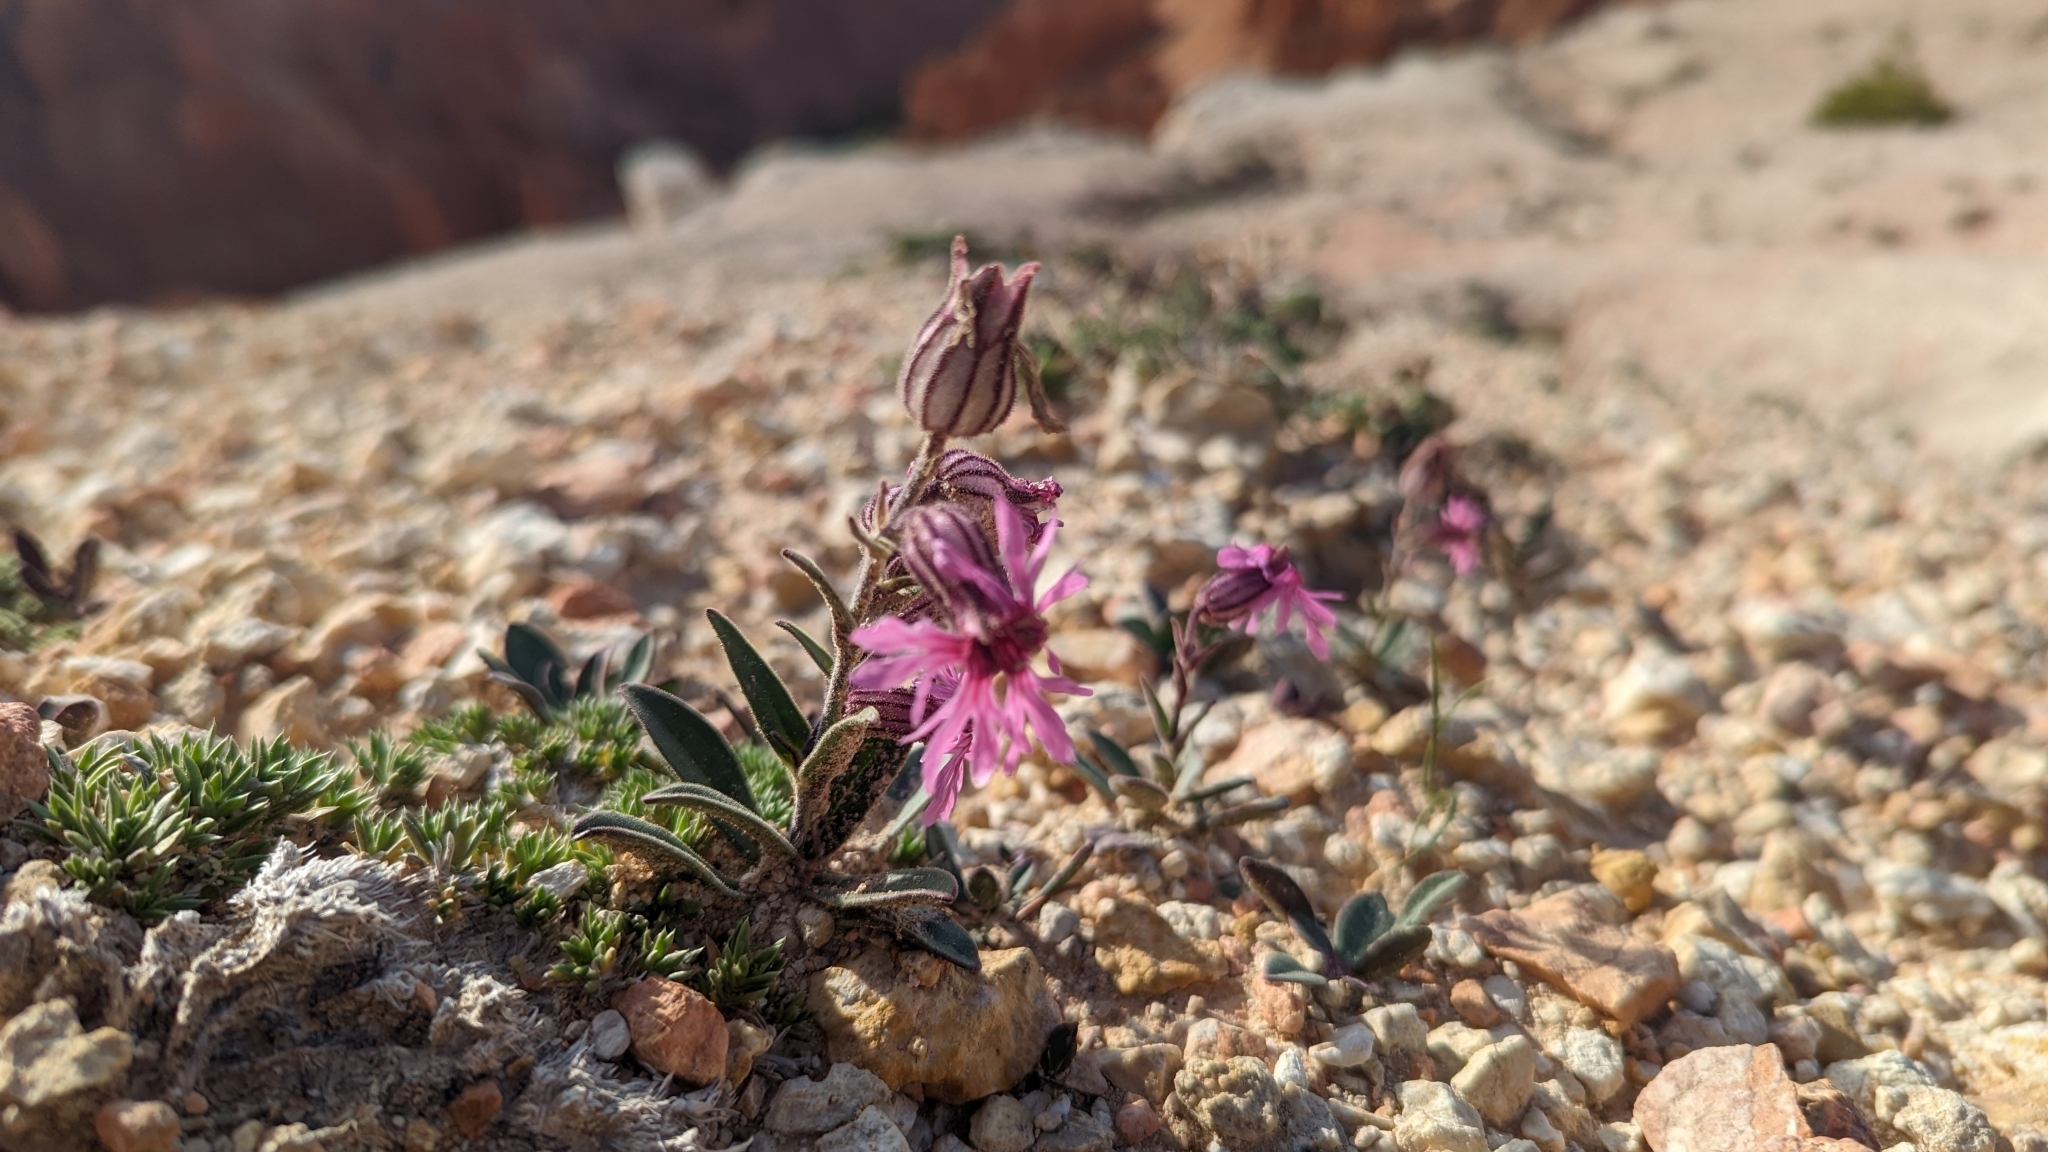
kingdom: Plantae
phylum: Tracheophyta
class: Magnoliopsida
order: Caryophyllales
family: Caryophyllaceae
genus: Silene
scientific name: Silene petersonii
